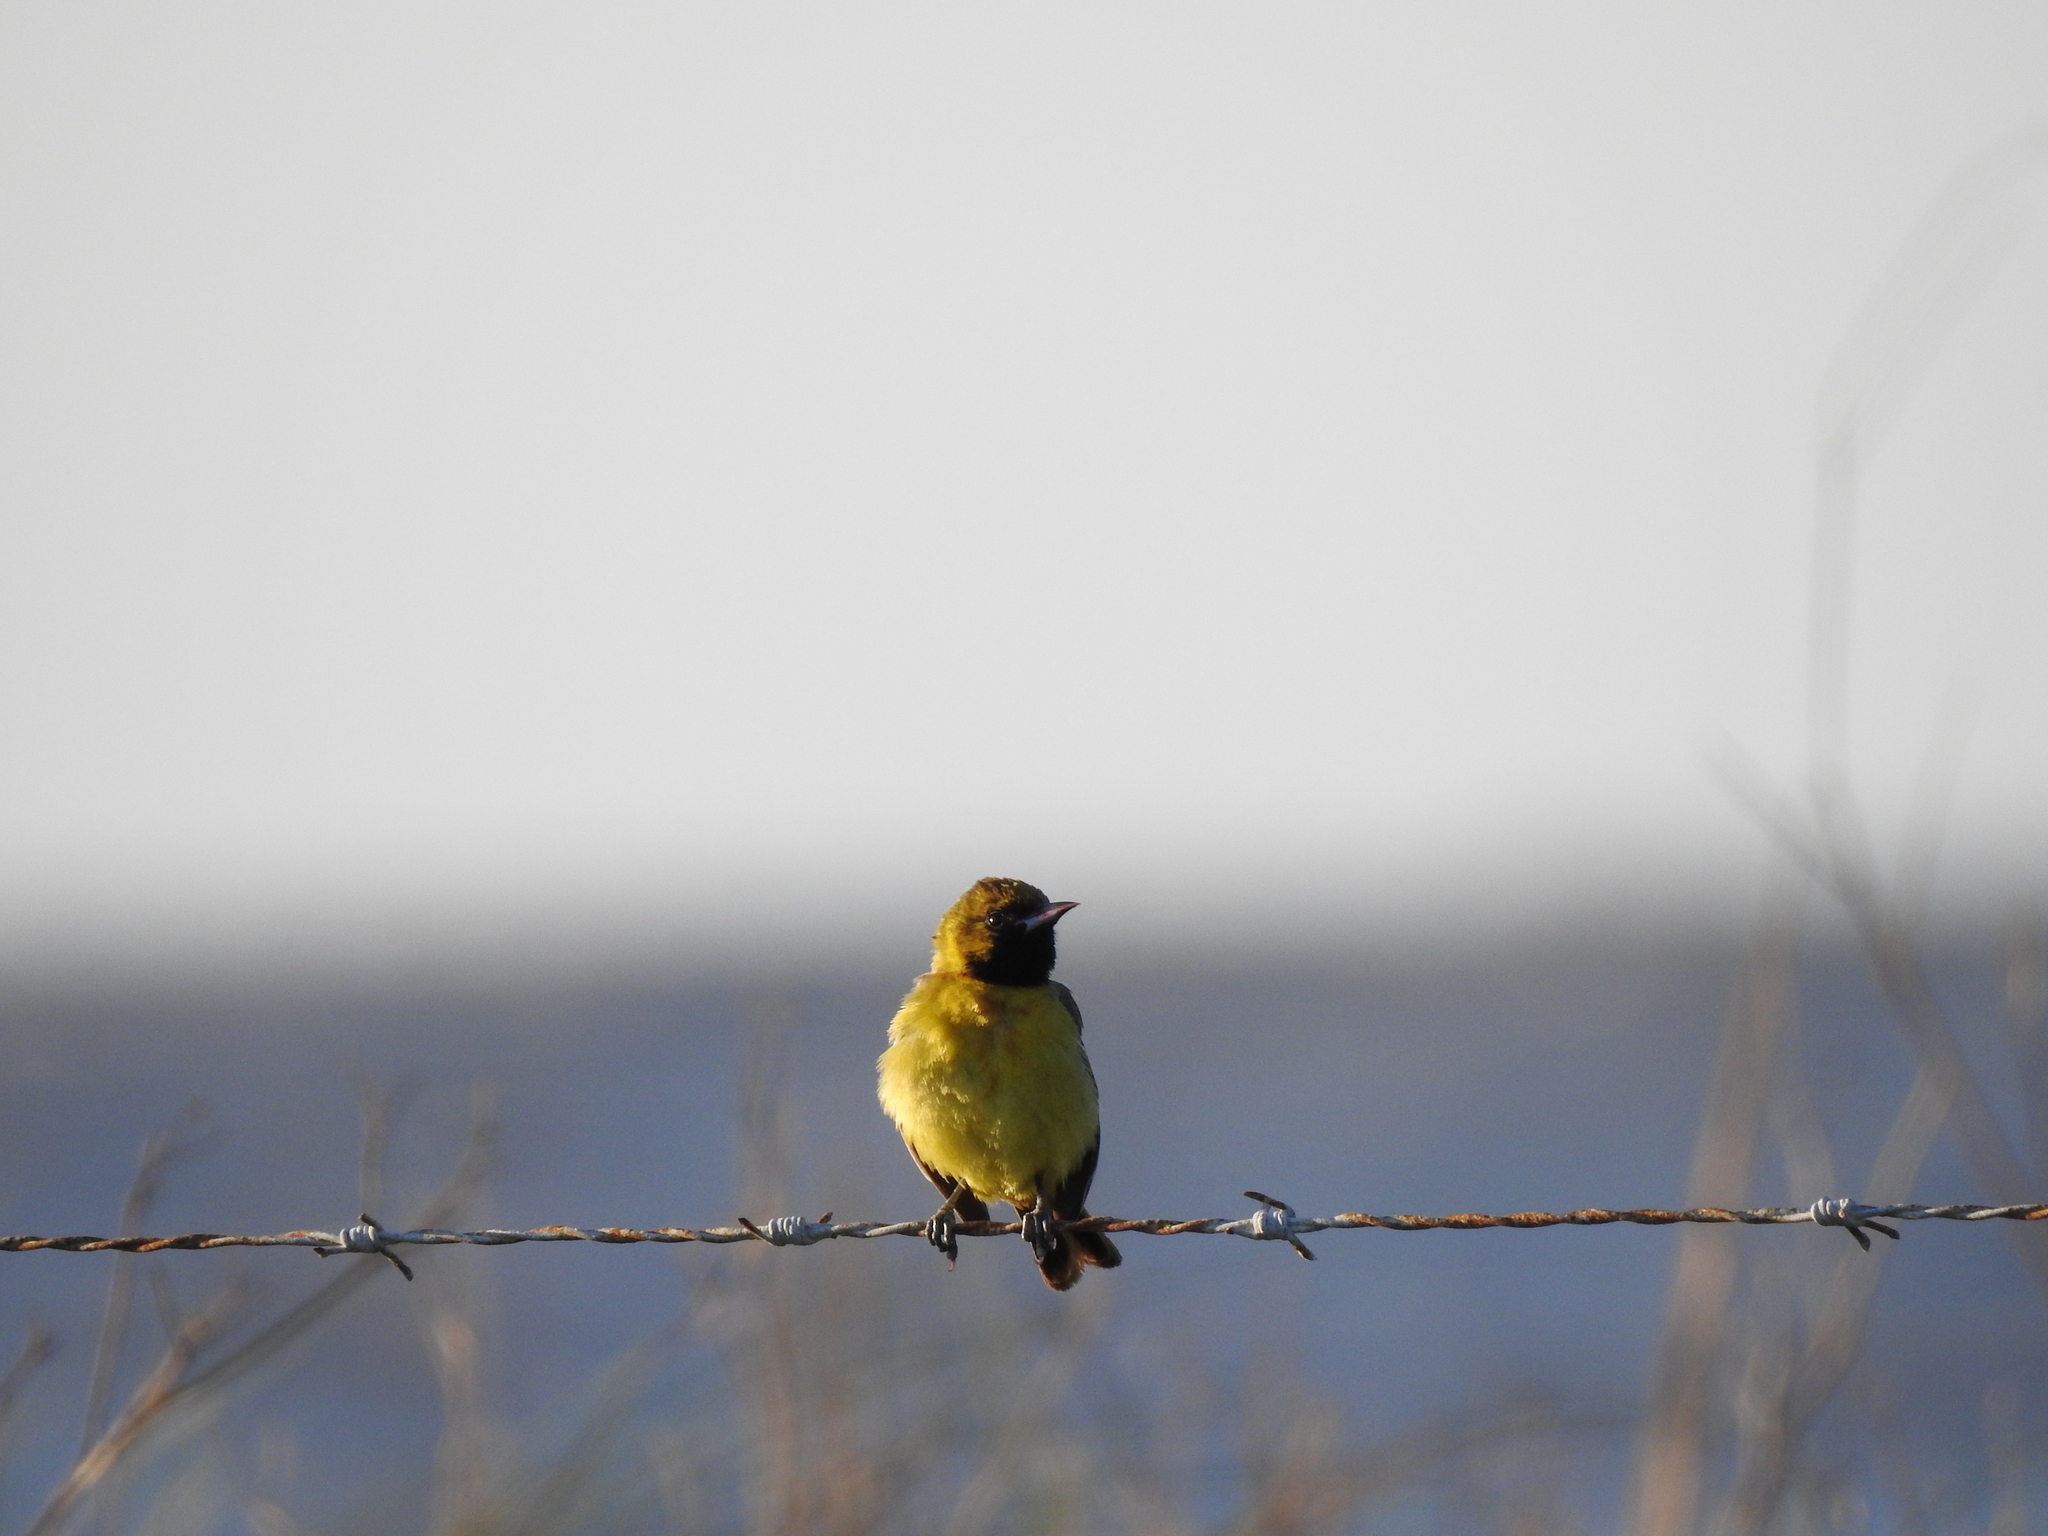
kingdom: Animalia
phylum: Chordata
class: Aves
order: Passeriformes
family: Icteridae
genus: Icterus
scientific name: Icterus spurius
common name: Orchard oriole
